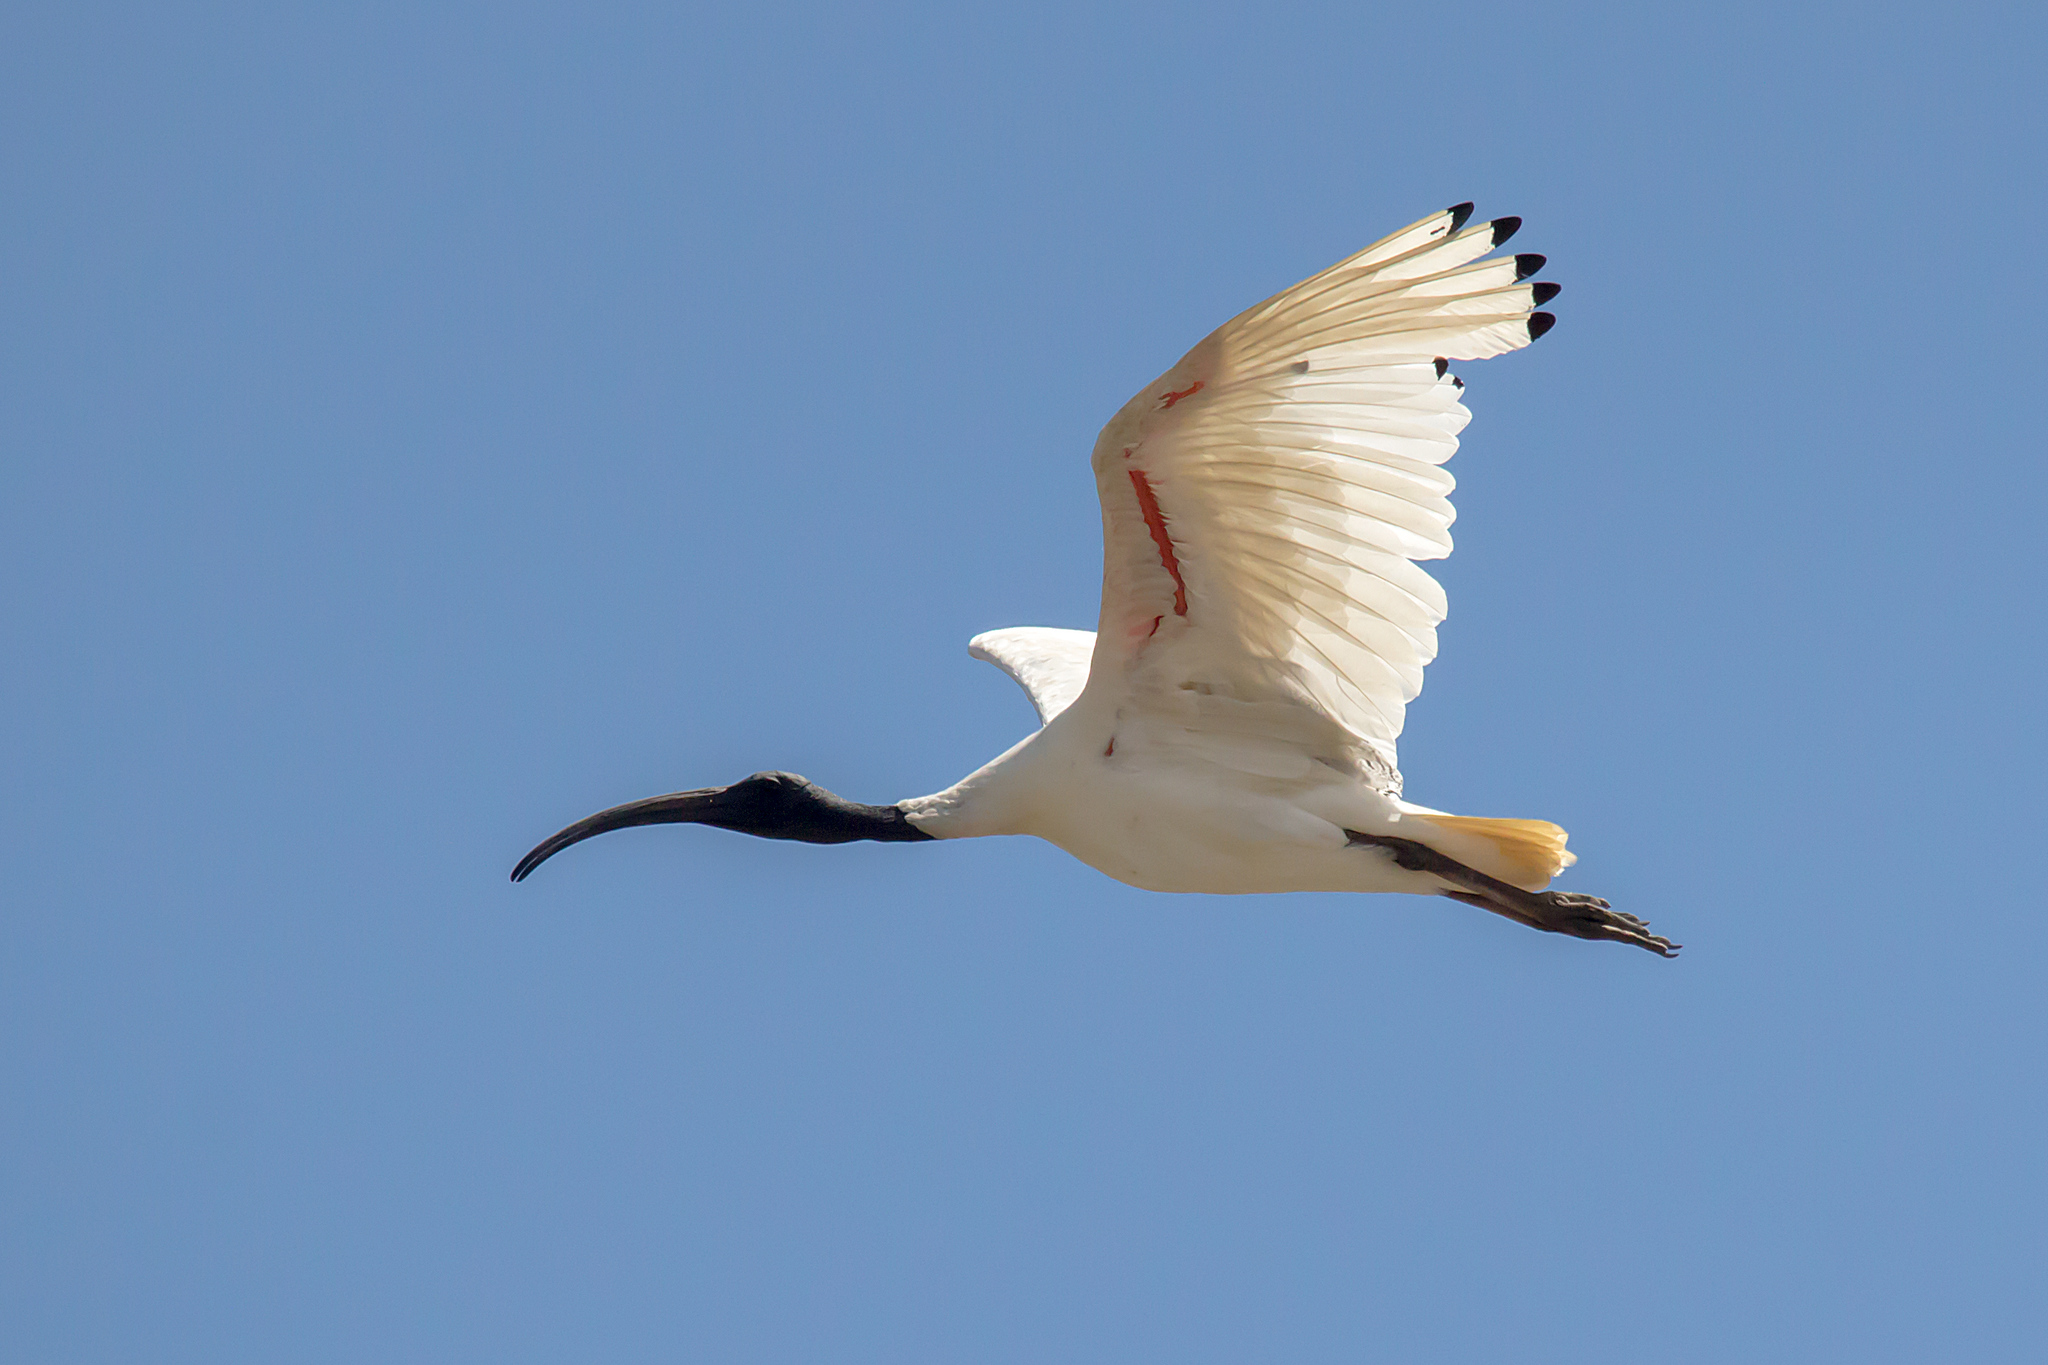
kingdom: Animalia
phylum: Chordata
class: Aves
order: Pelecaniformes
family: Threskiornithidae
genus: Threskiornis
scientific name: Threskiornis molucca
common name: Australian white ibis
